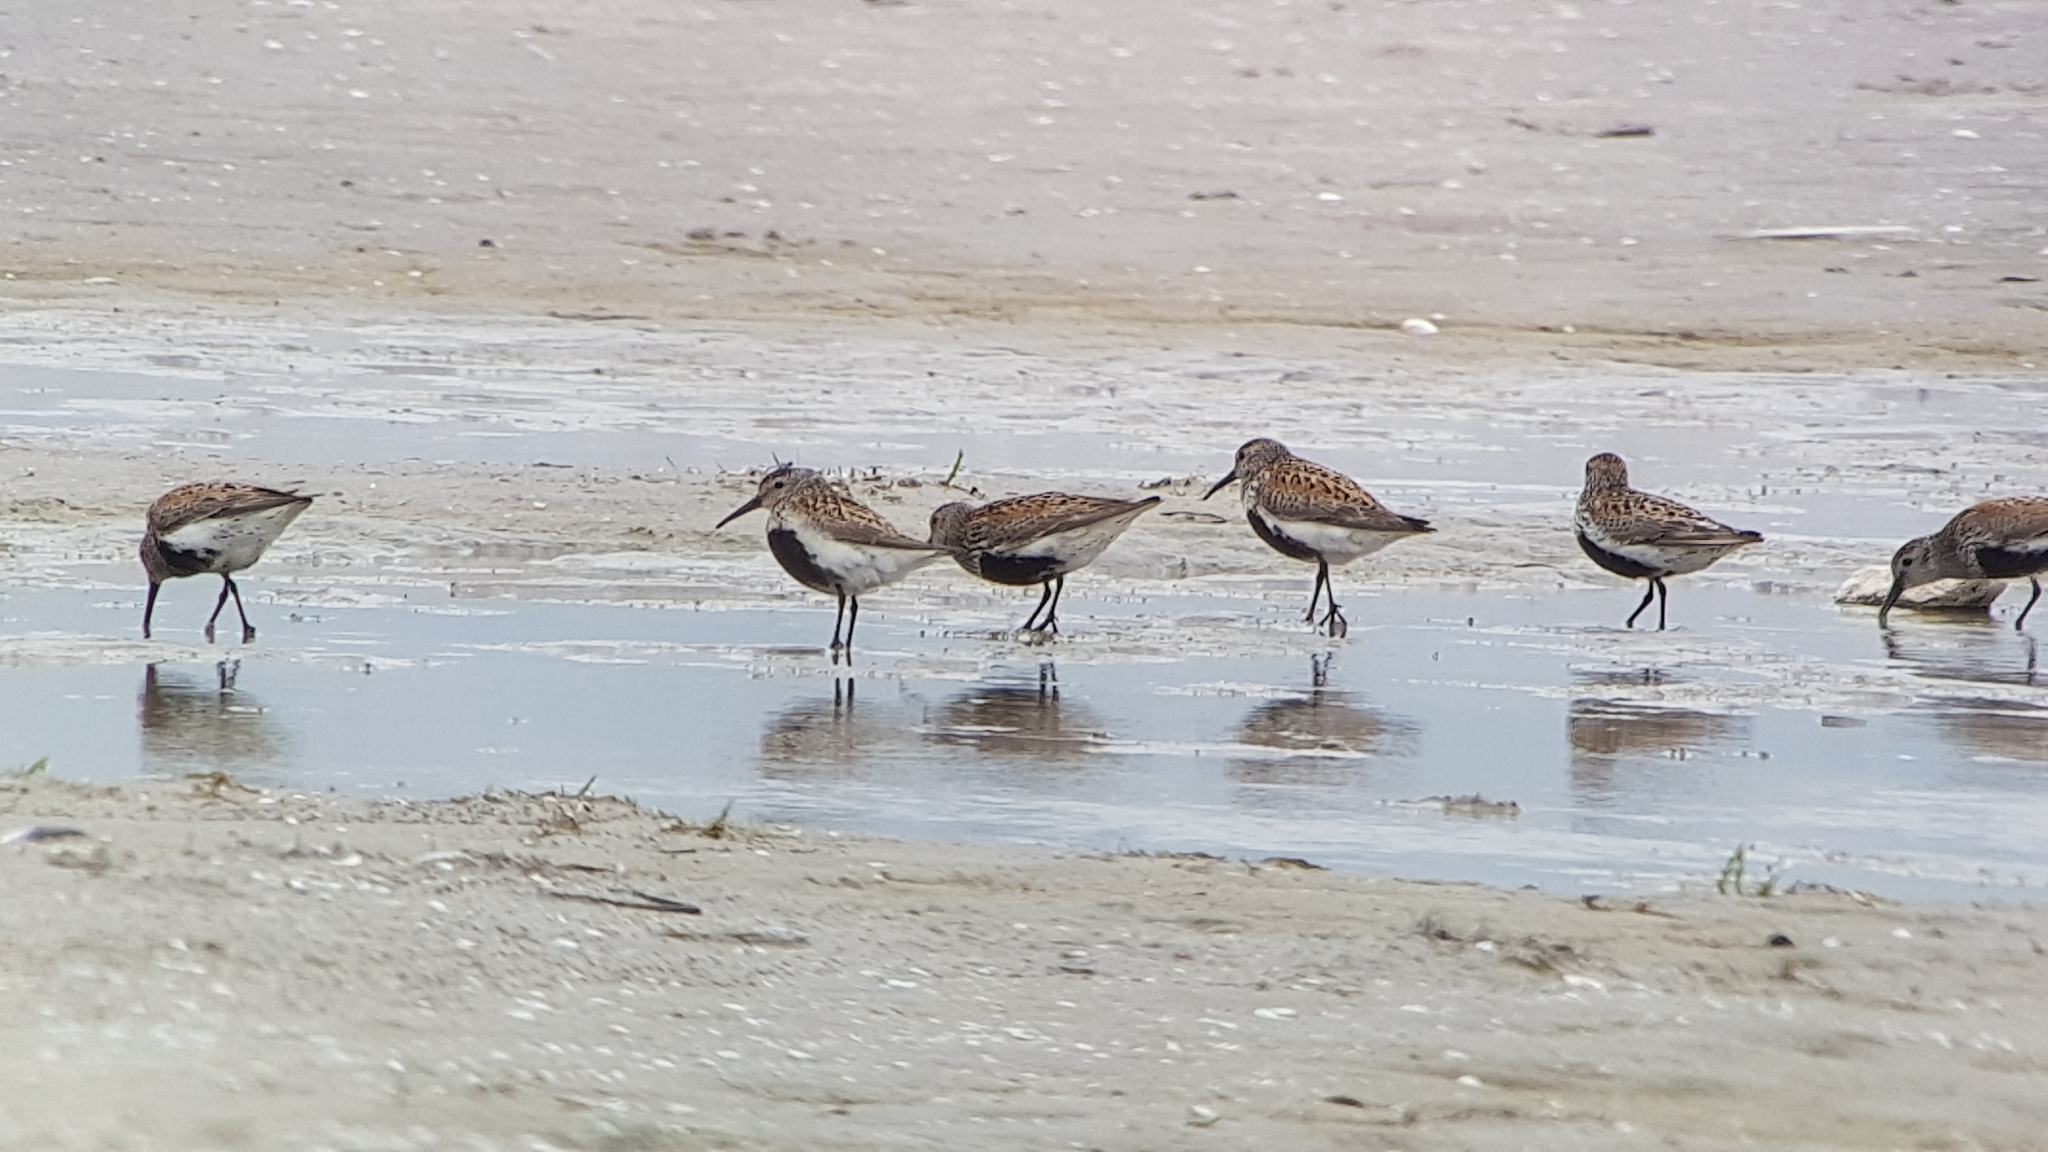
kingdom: Animalia
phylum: Chordata
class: Aves
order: Charadriiformes
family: Scolopacidae
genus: Calidris
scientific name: Calidris alpina
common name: Dunlin
